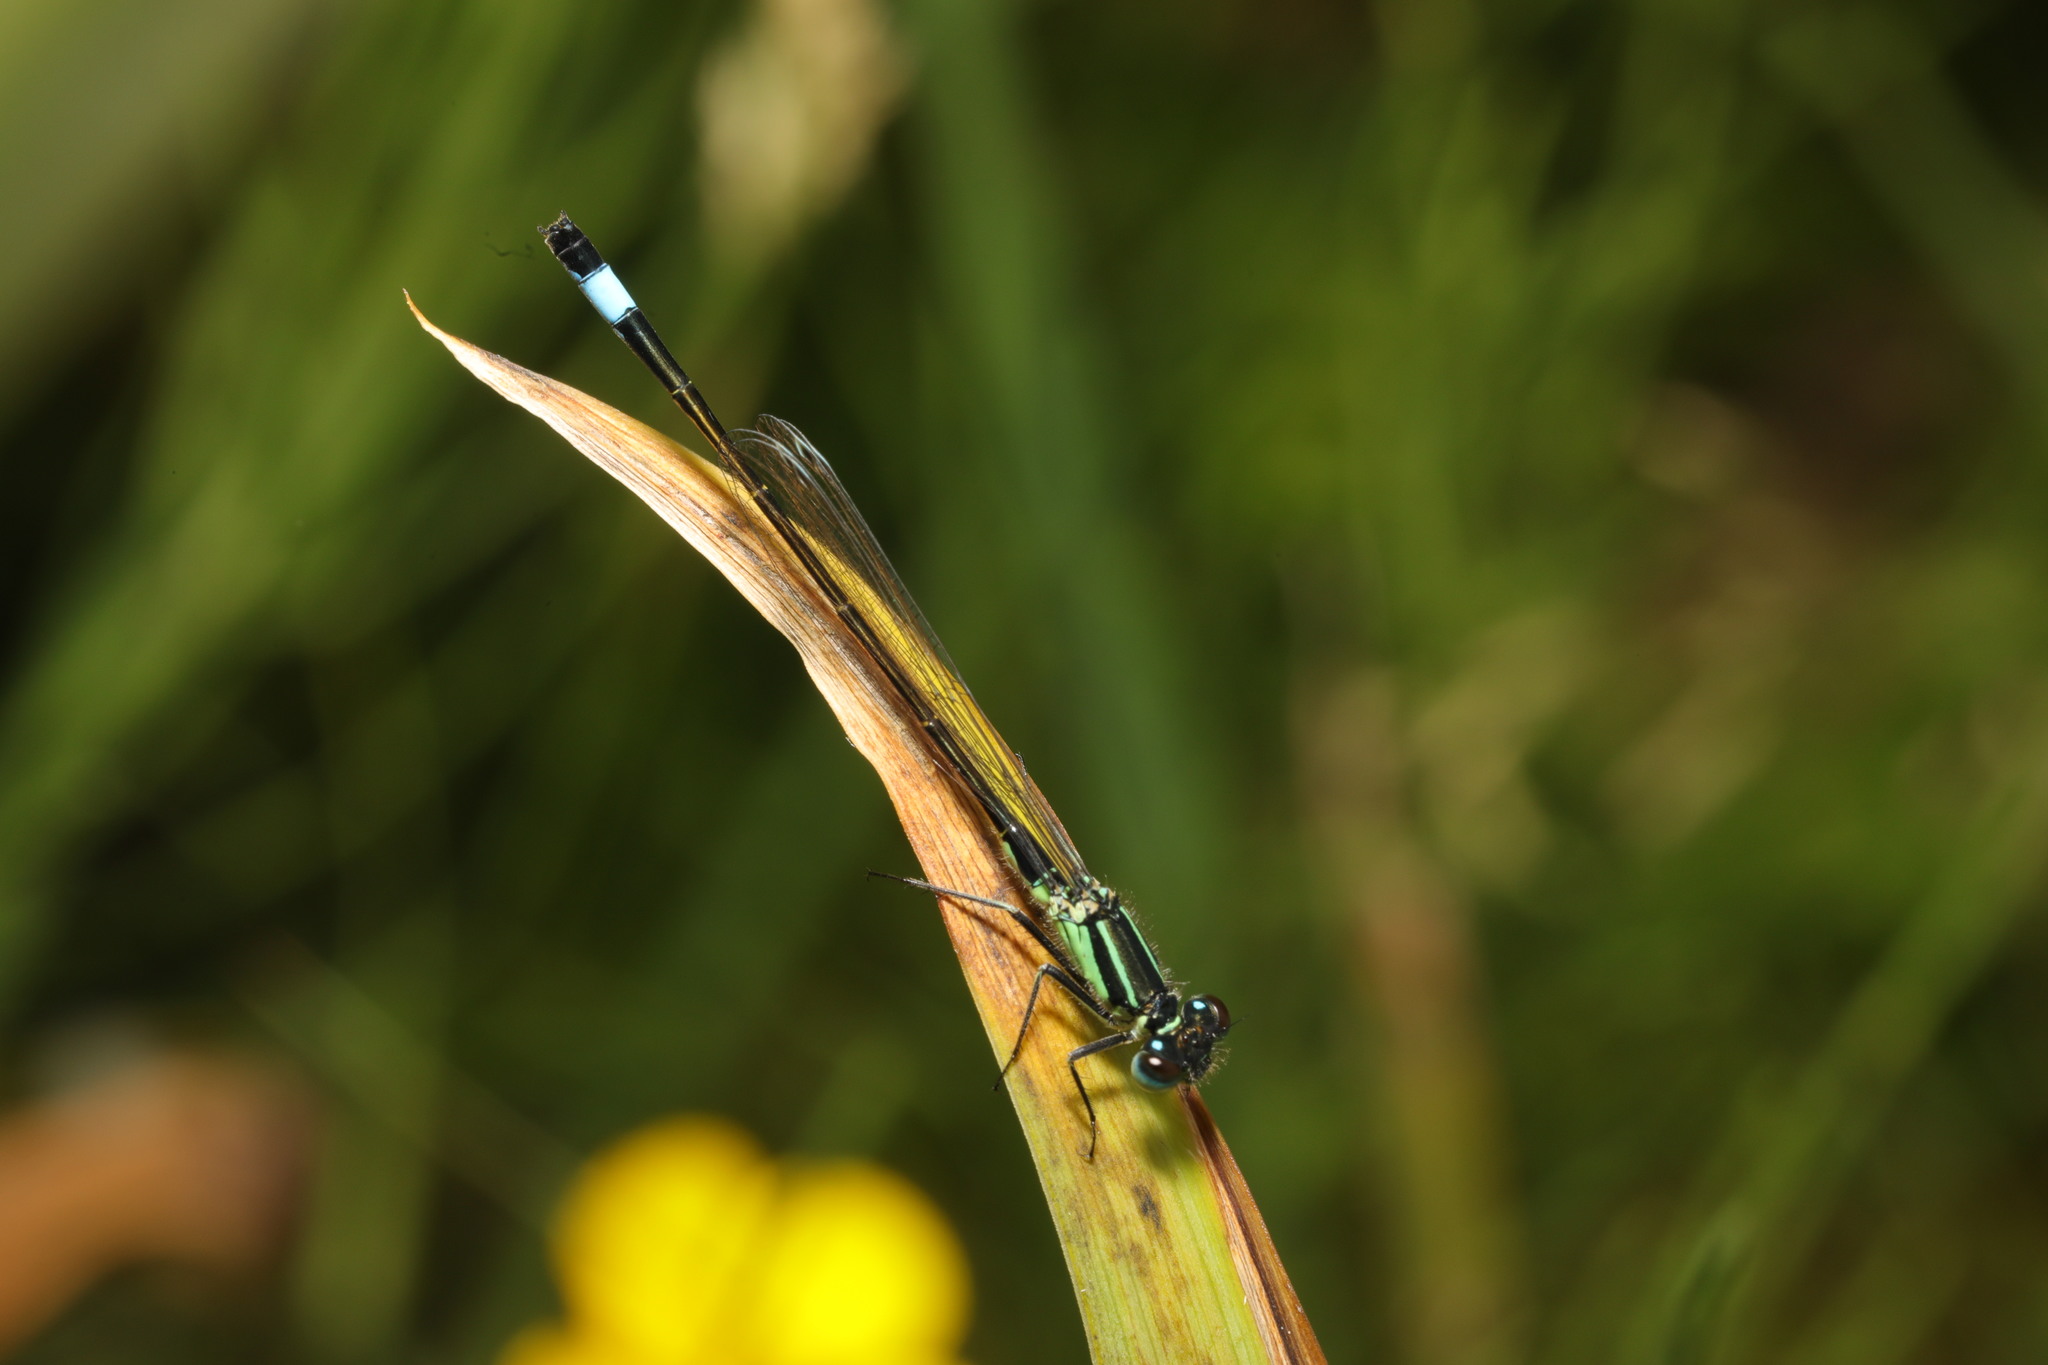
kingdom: Animalia
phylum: Arthropoda
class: Insecta
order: Odonata
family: Coenagrionidae
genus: Ischnura
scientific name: Ischnura elegans
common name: Blue-tailed damselfly
